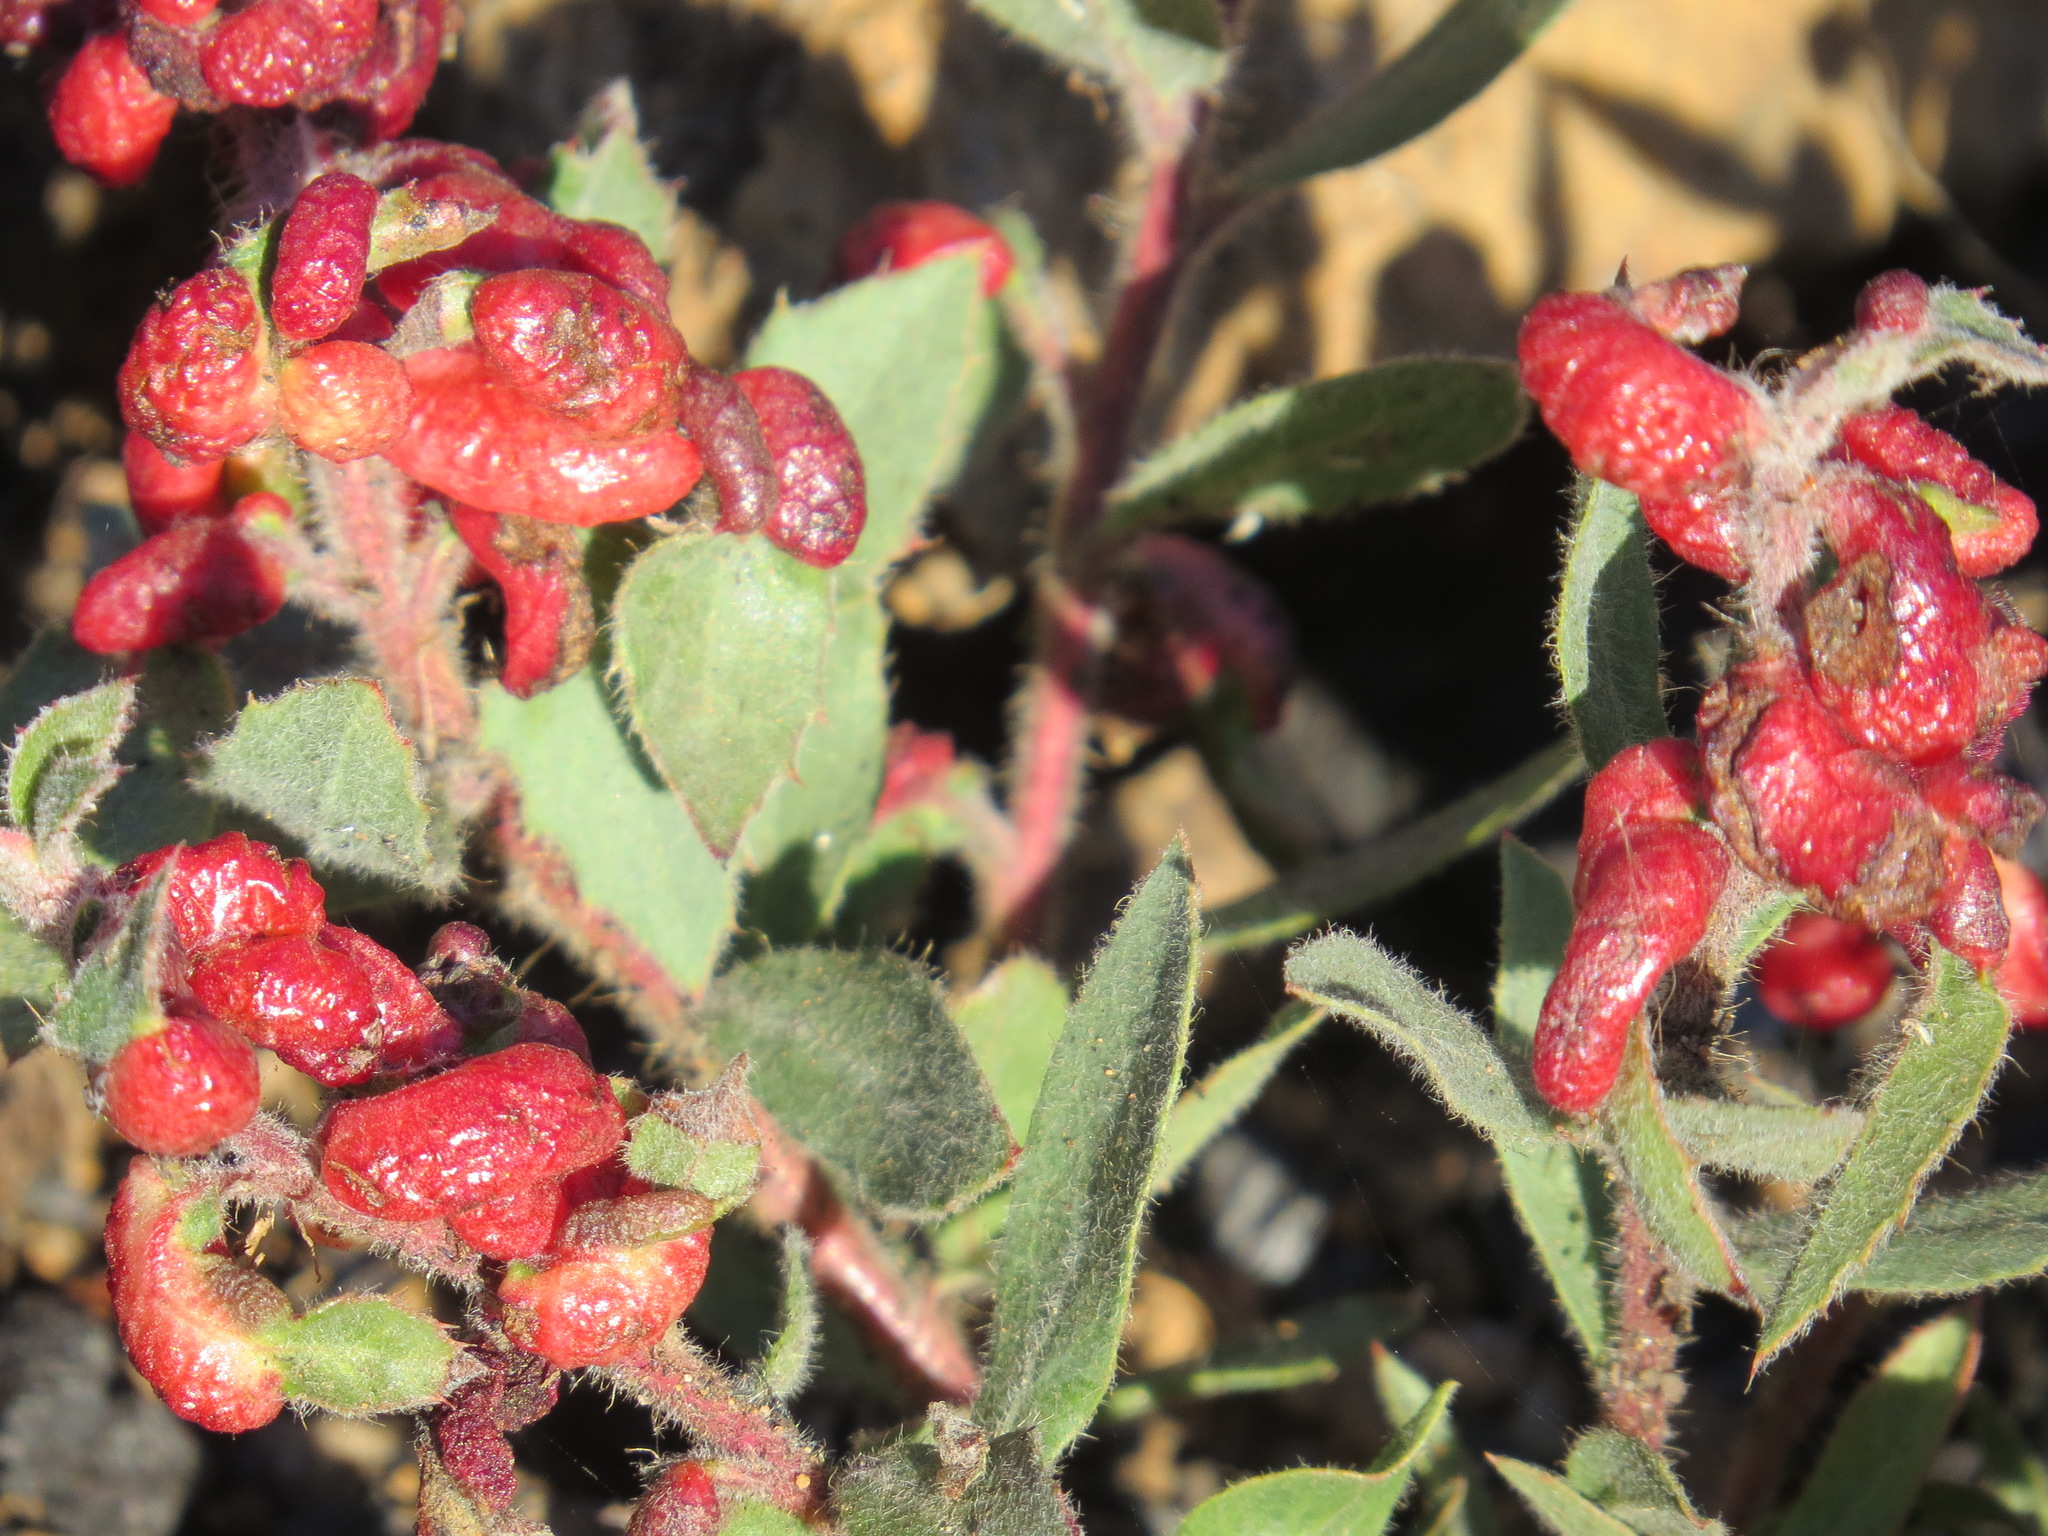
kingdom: Animalia
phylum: Arthropoda
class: Insecta
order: Hemiptera
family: Aphididae
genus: Tamalia
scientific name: Tamalia coweni
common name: Manzanita leafgall aphid
